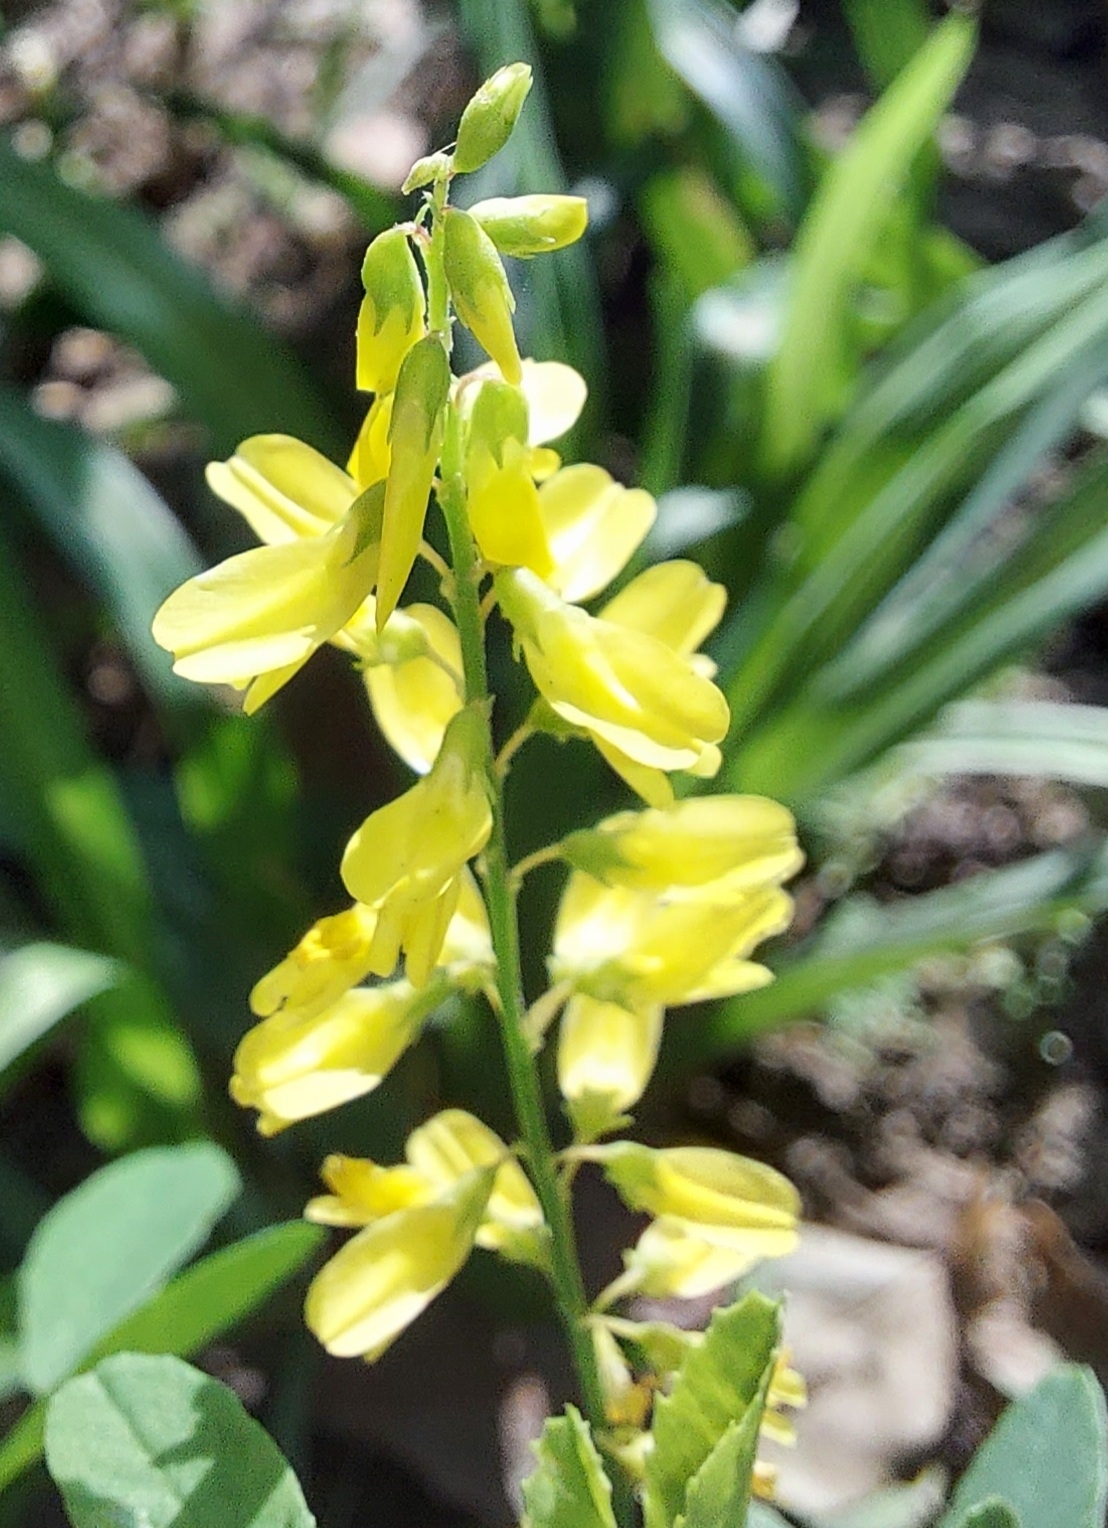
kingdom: Plantae
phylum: Tracheophyta
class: Magnoliopsida
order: Fabales
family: Fabaceae
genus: Melilotus
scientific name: Melilotus officinalis
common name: Sweetclover
